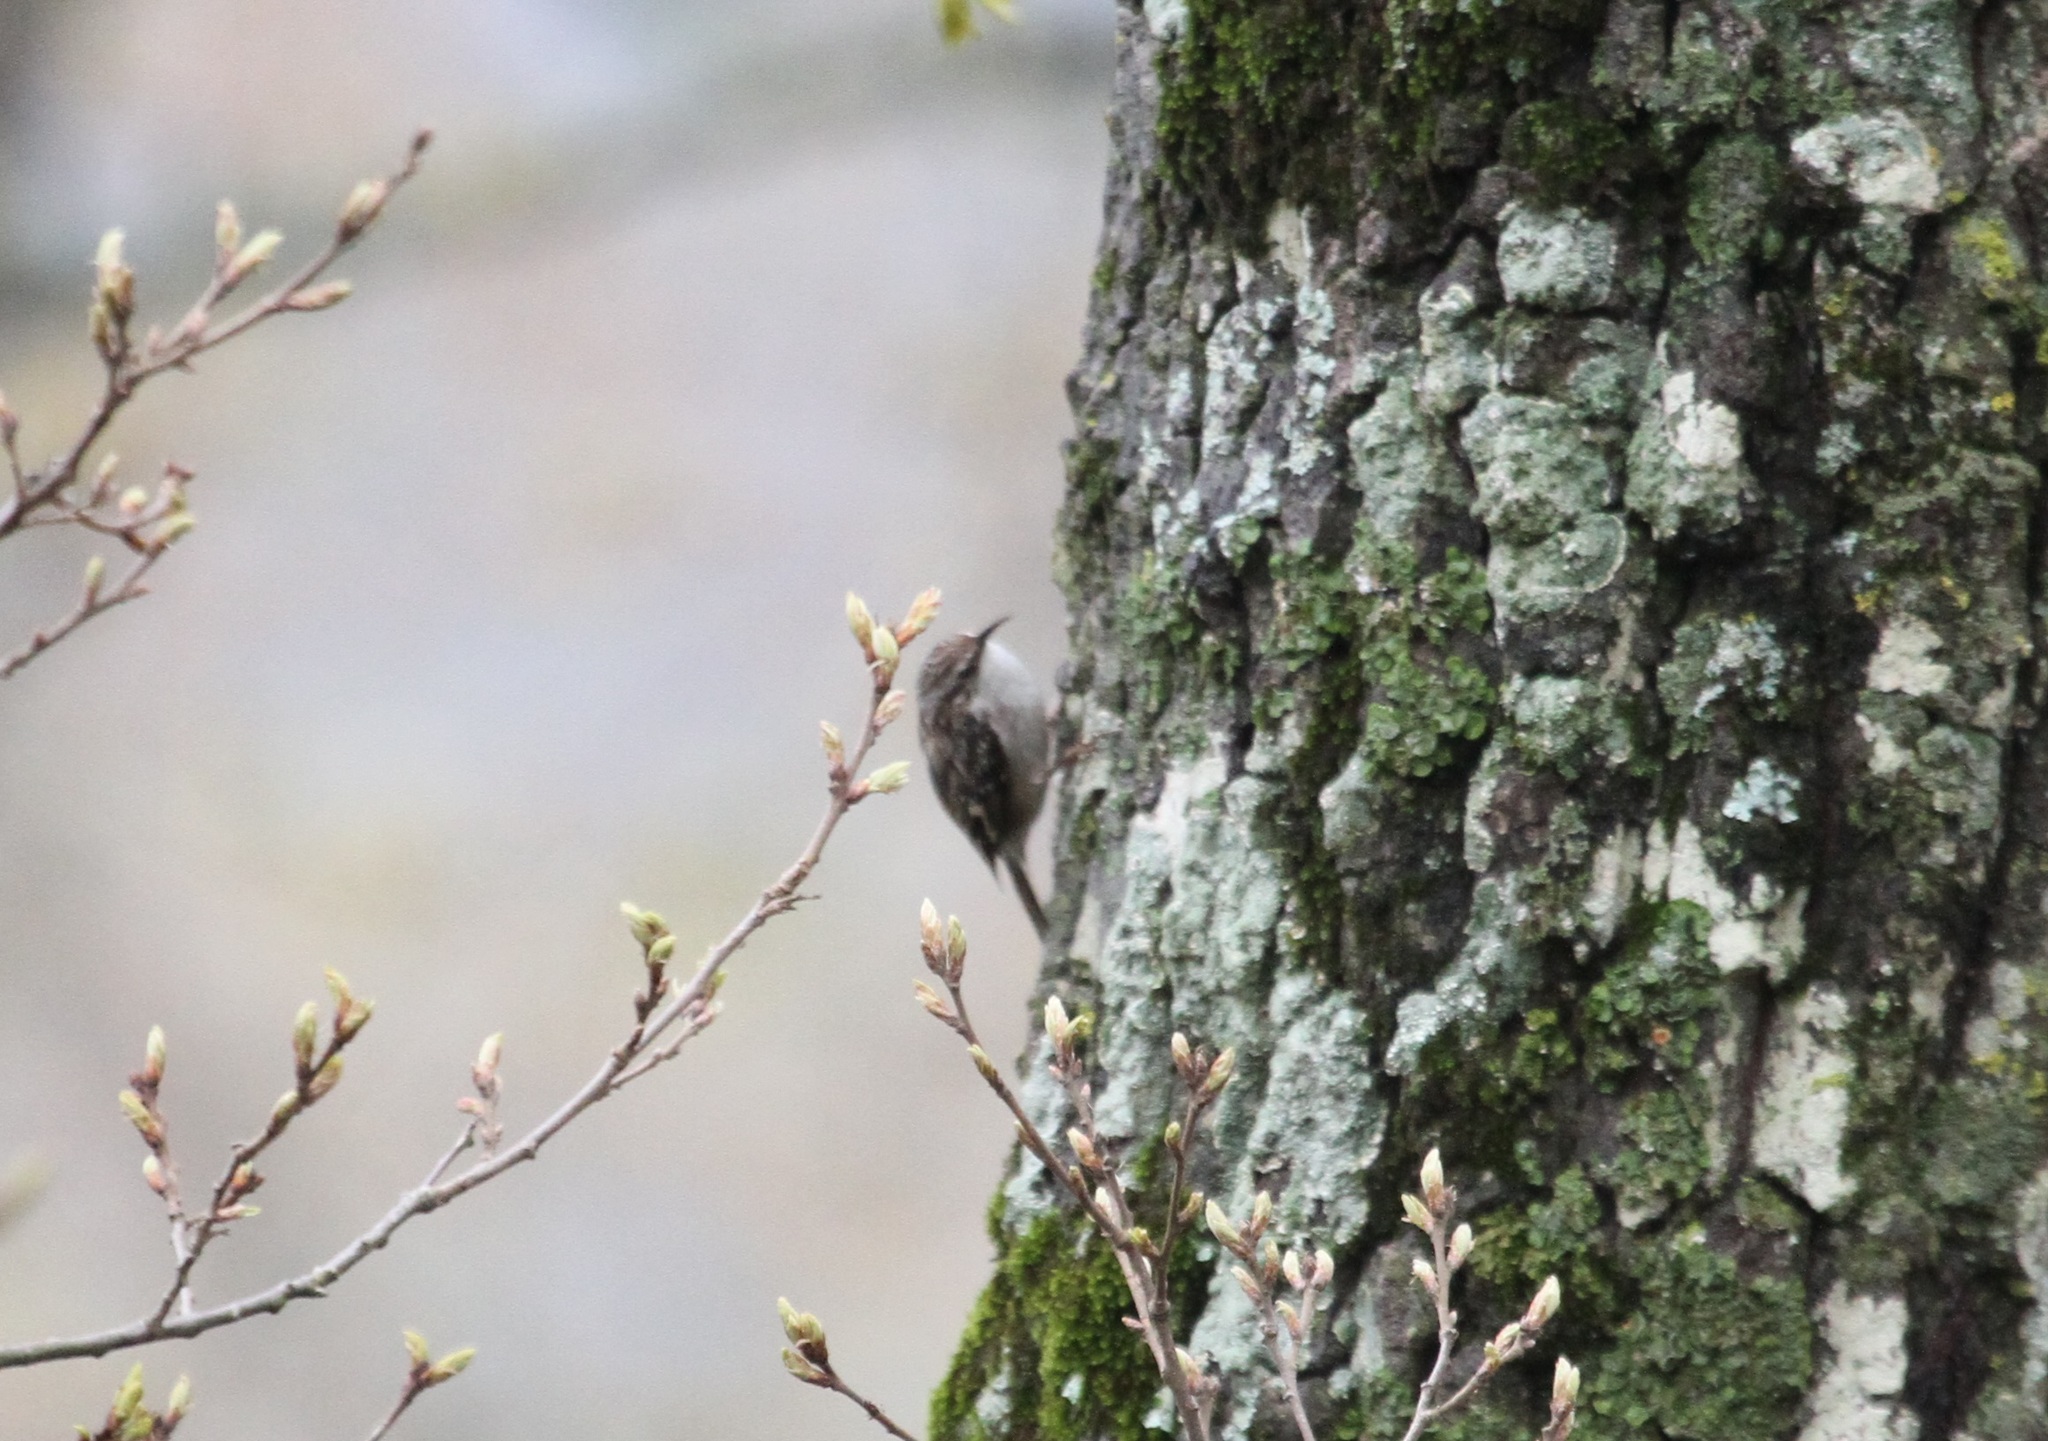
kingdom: Animalia
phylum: Chordata
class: Aves
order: Passeriformes
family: Certhiidae
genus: Certhia
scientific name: Certhia brachydactyla
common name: Short-toed treecreeper
